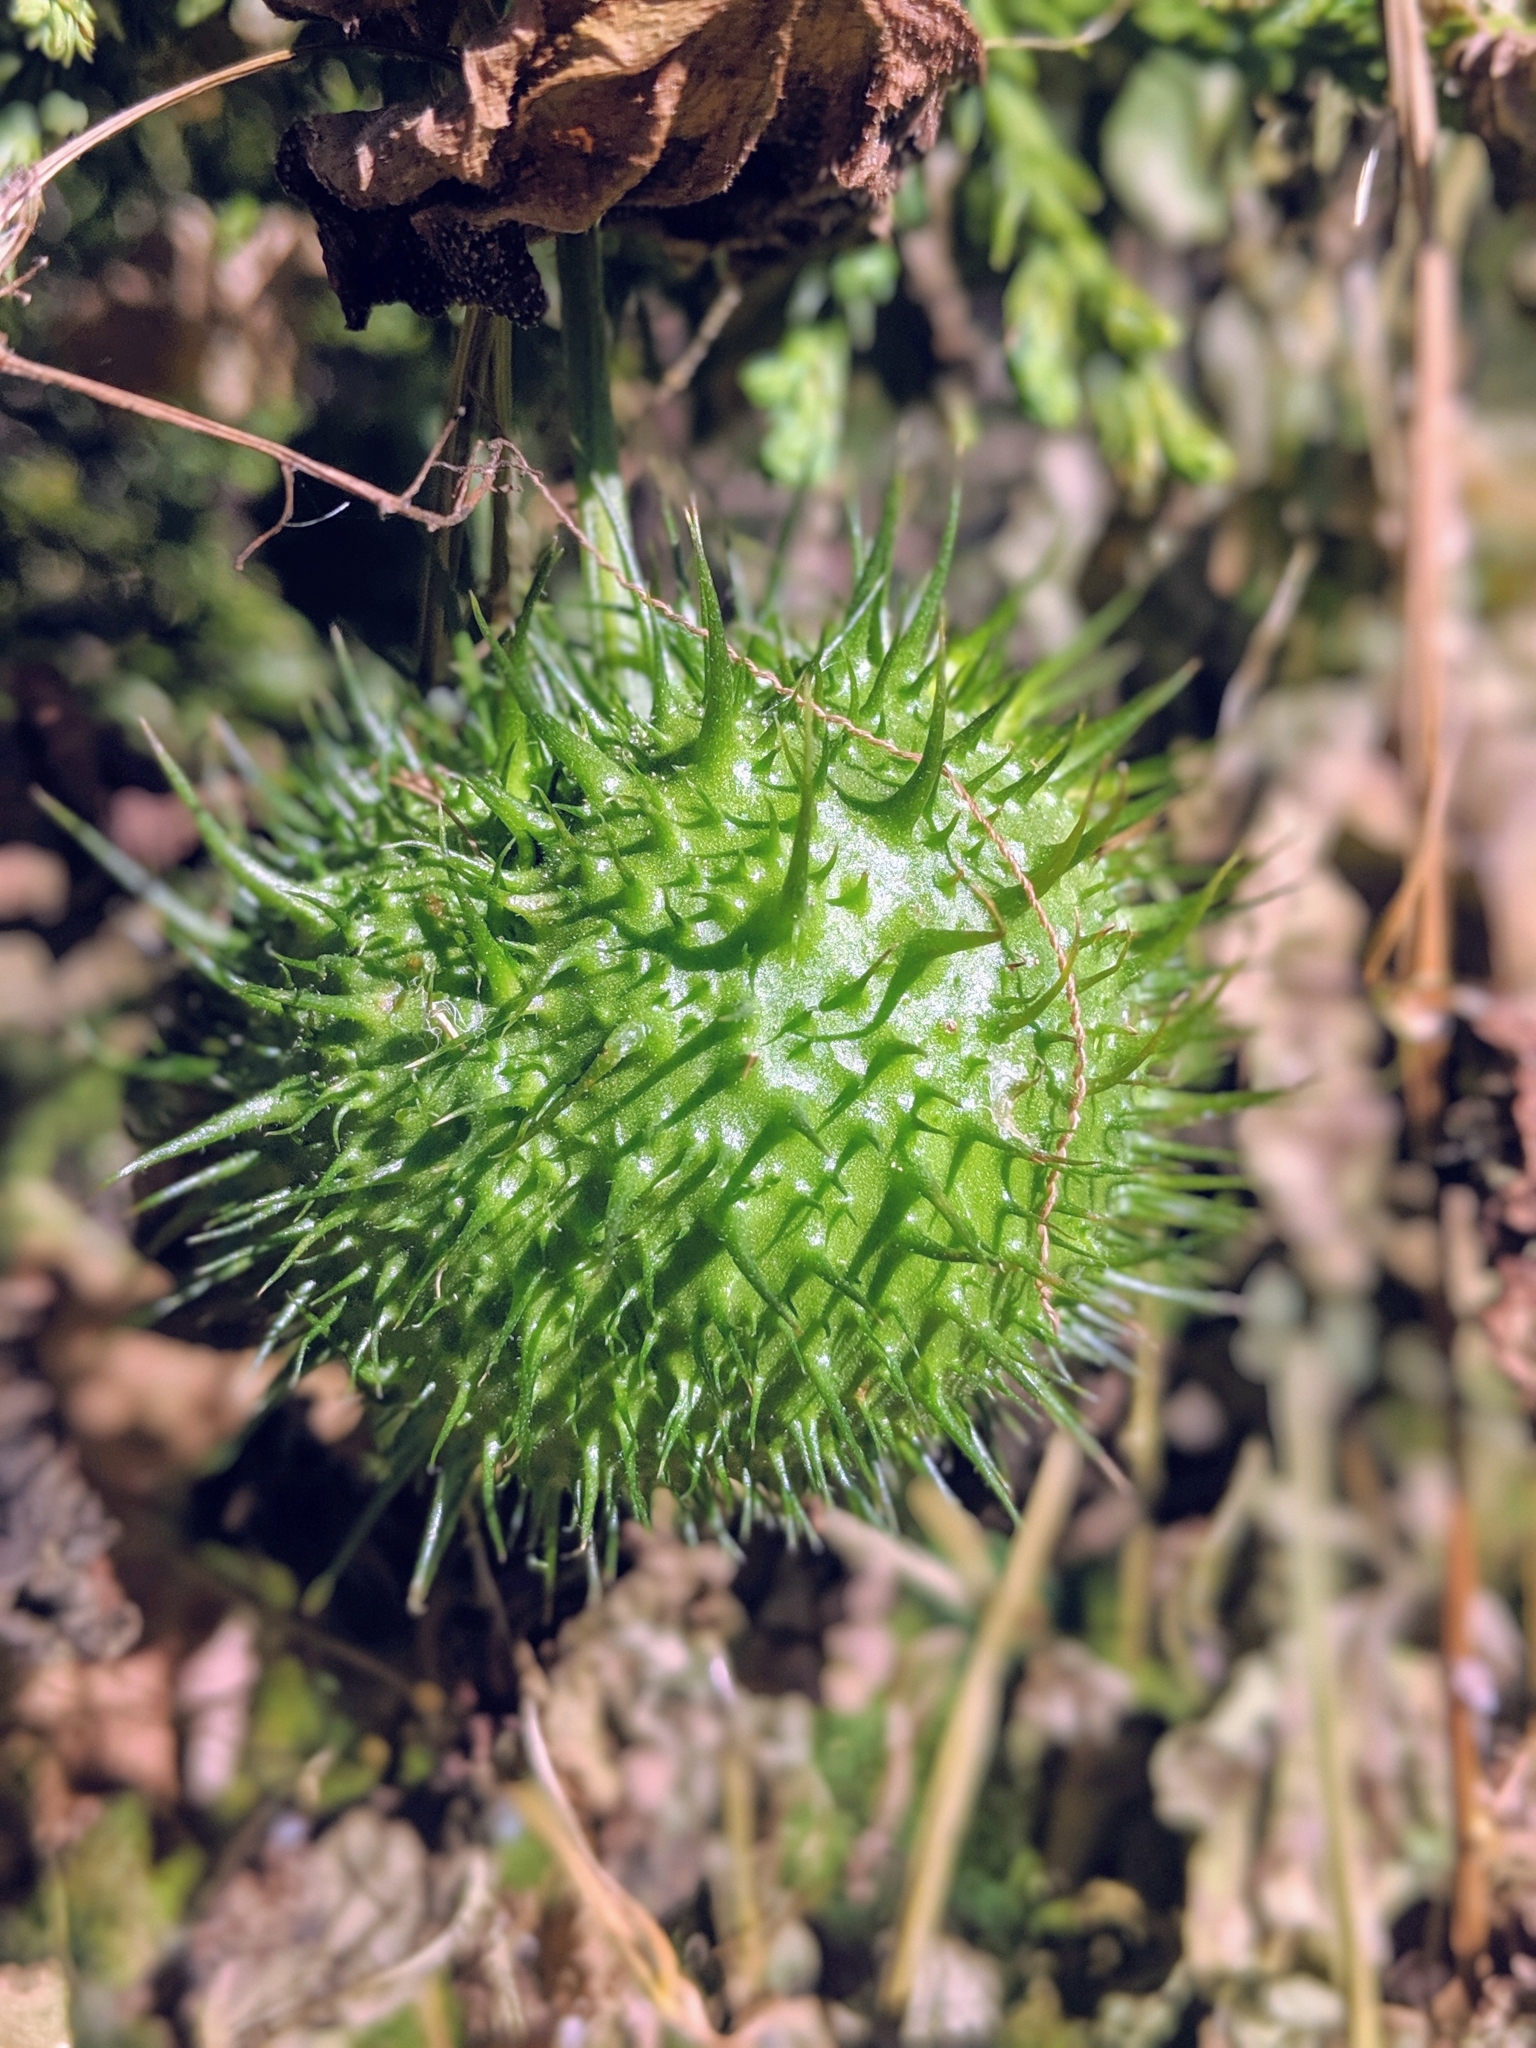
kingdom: Plantae
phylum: Tracheophyta
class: Magnoliopsida
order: Cucurbitales
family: Cucurbitaceae
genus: Marah
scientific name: Marah fabacea
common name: California manroot
